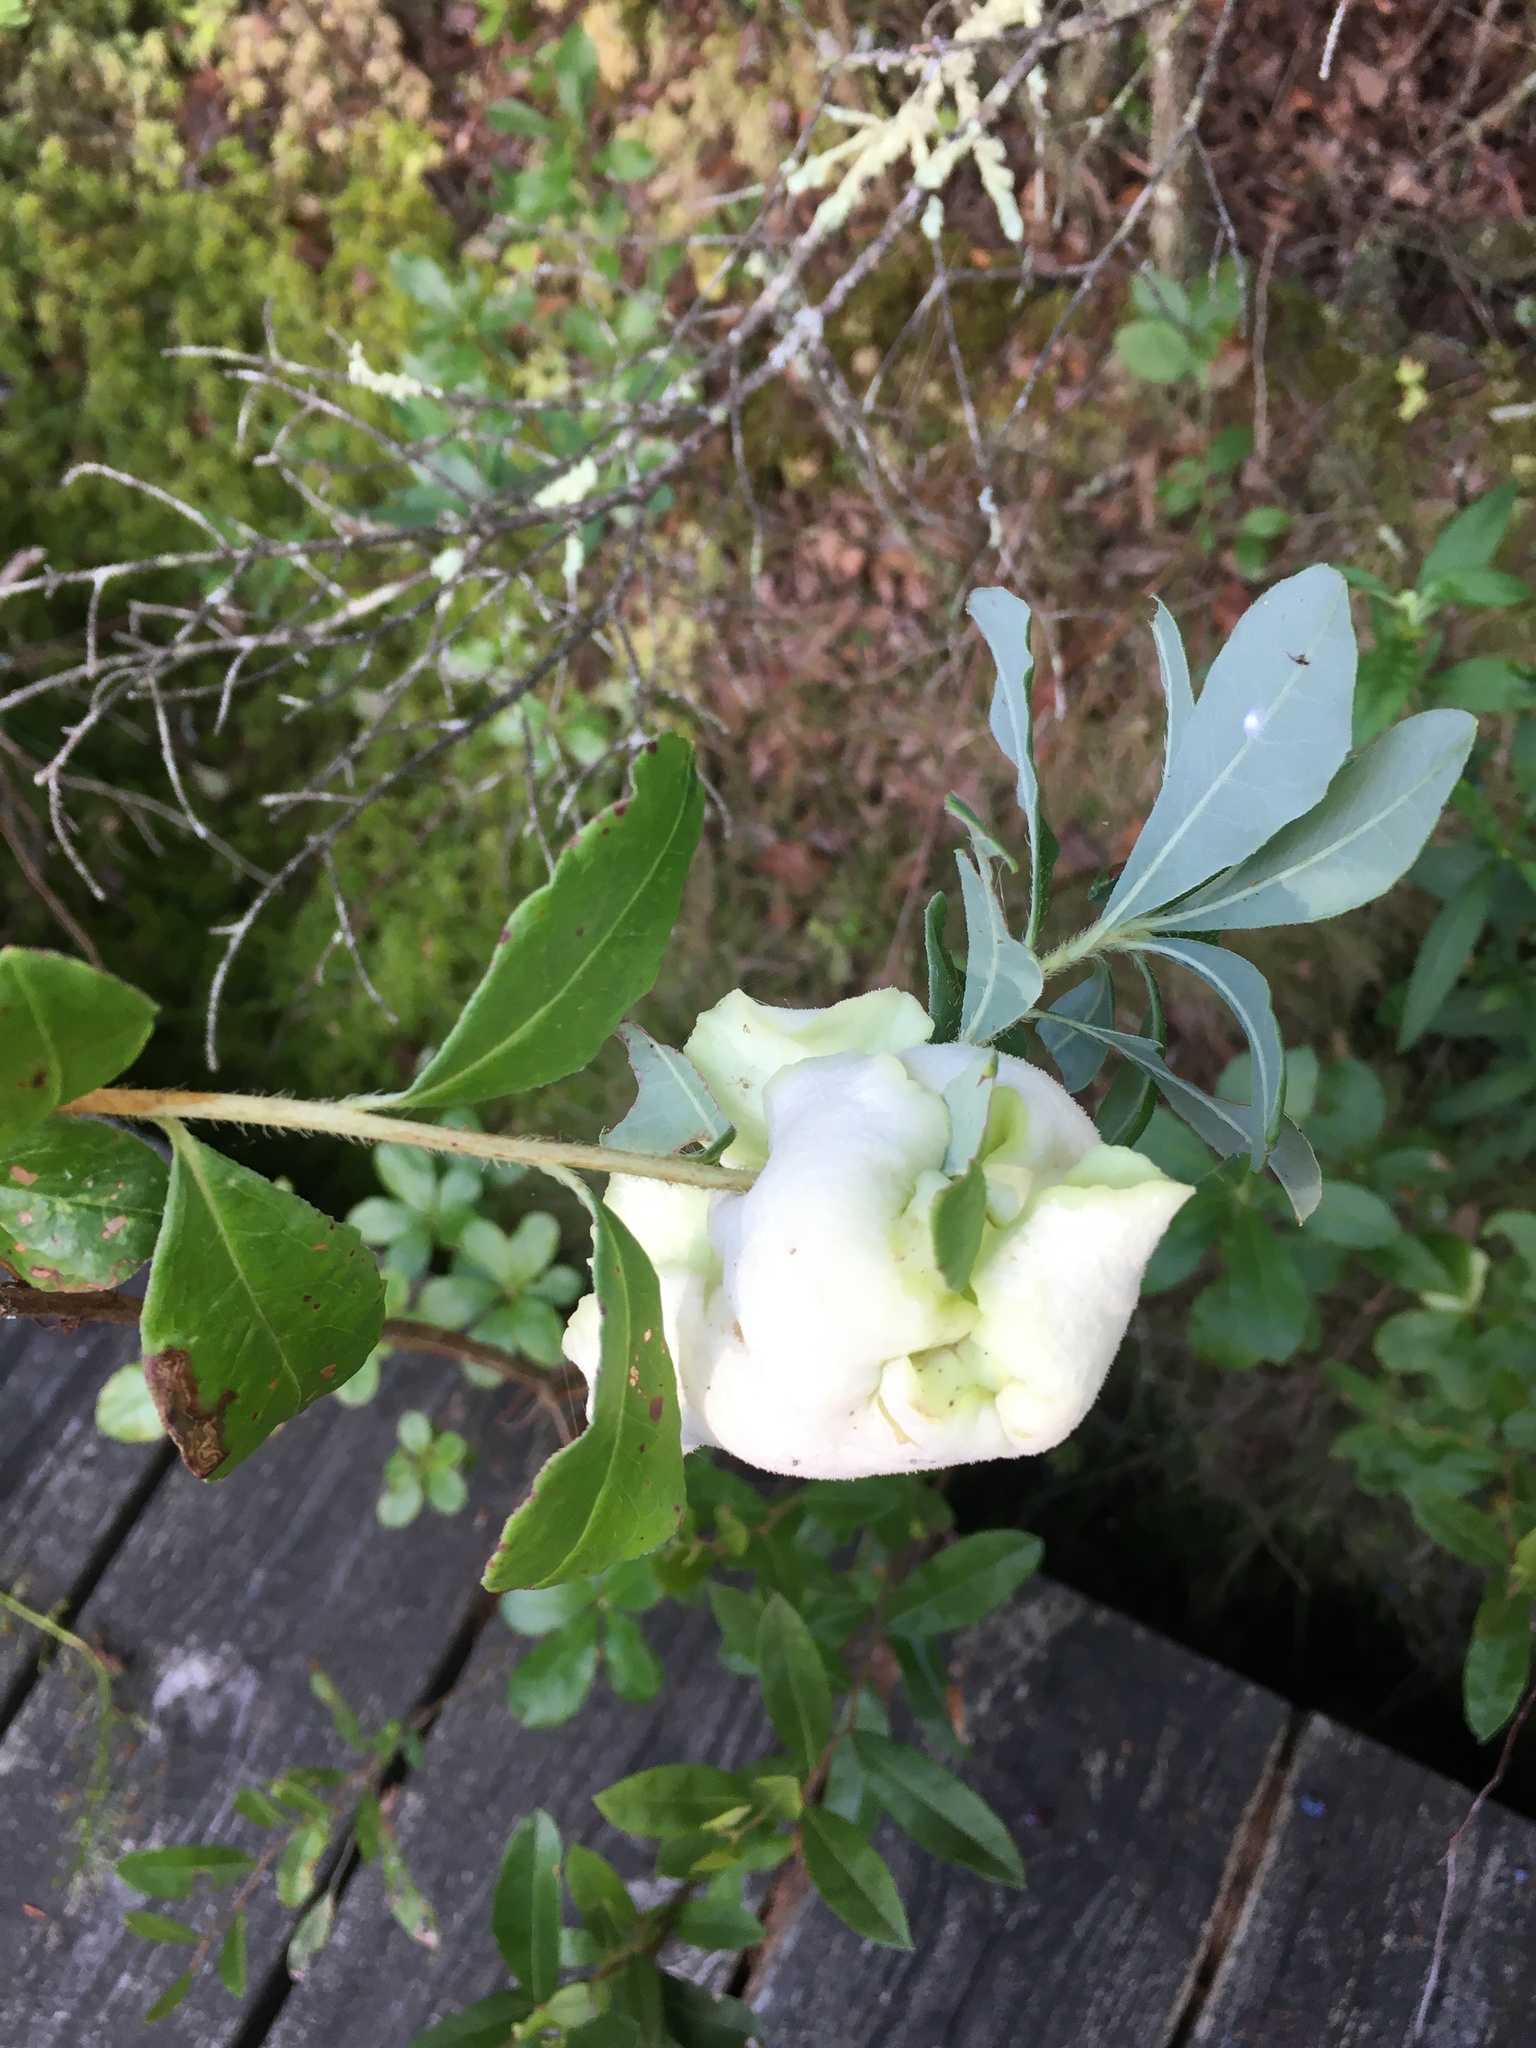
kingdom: Fungi
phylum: Basidiomycota
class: Exobasidiomycetes
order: Exobasidiales
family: Exobasidiaceae
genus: Exobasidium
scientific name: Exobasidium vaccinii
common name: Cowberry redleaf
